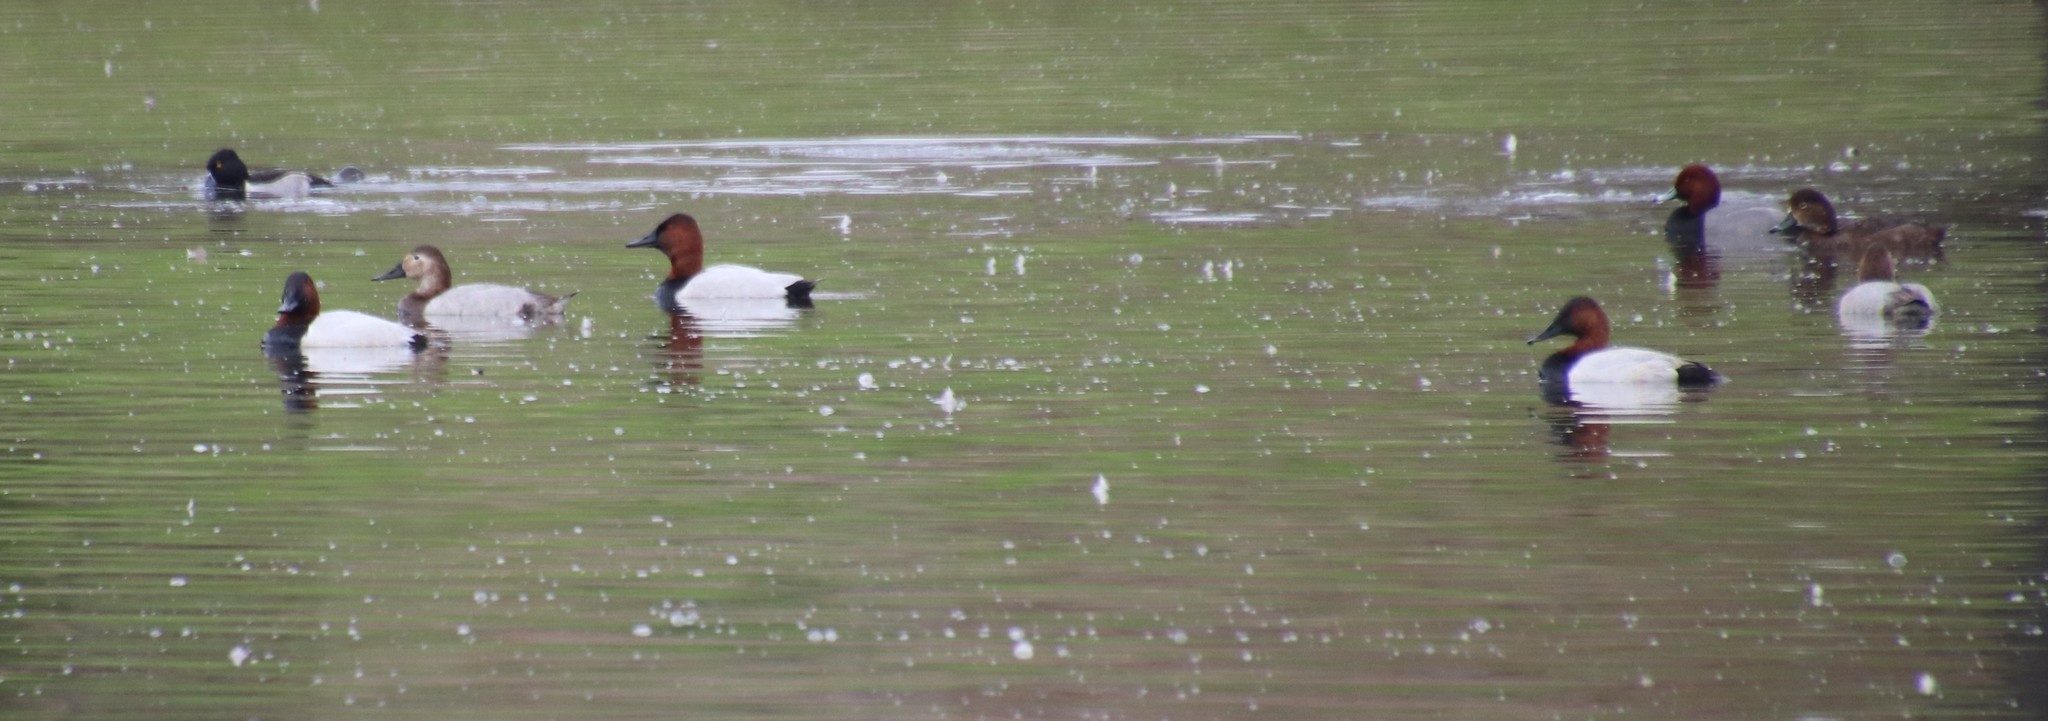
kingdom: Animalia
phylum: Chordata
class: Aves
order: Anseriformes
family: Anatidae
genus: Aythya
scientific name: Aythya valisineria
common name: Canvasback
